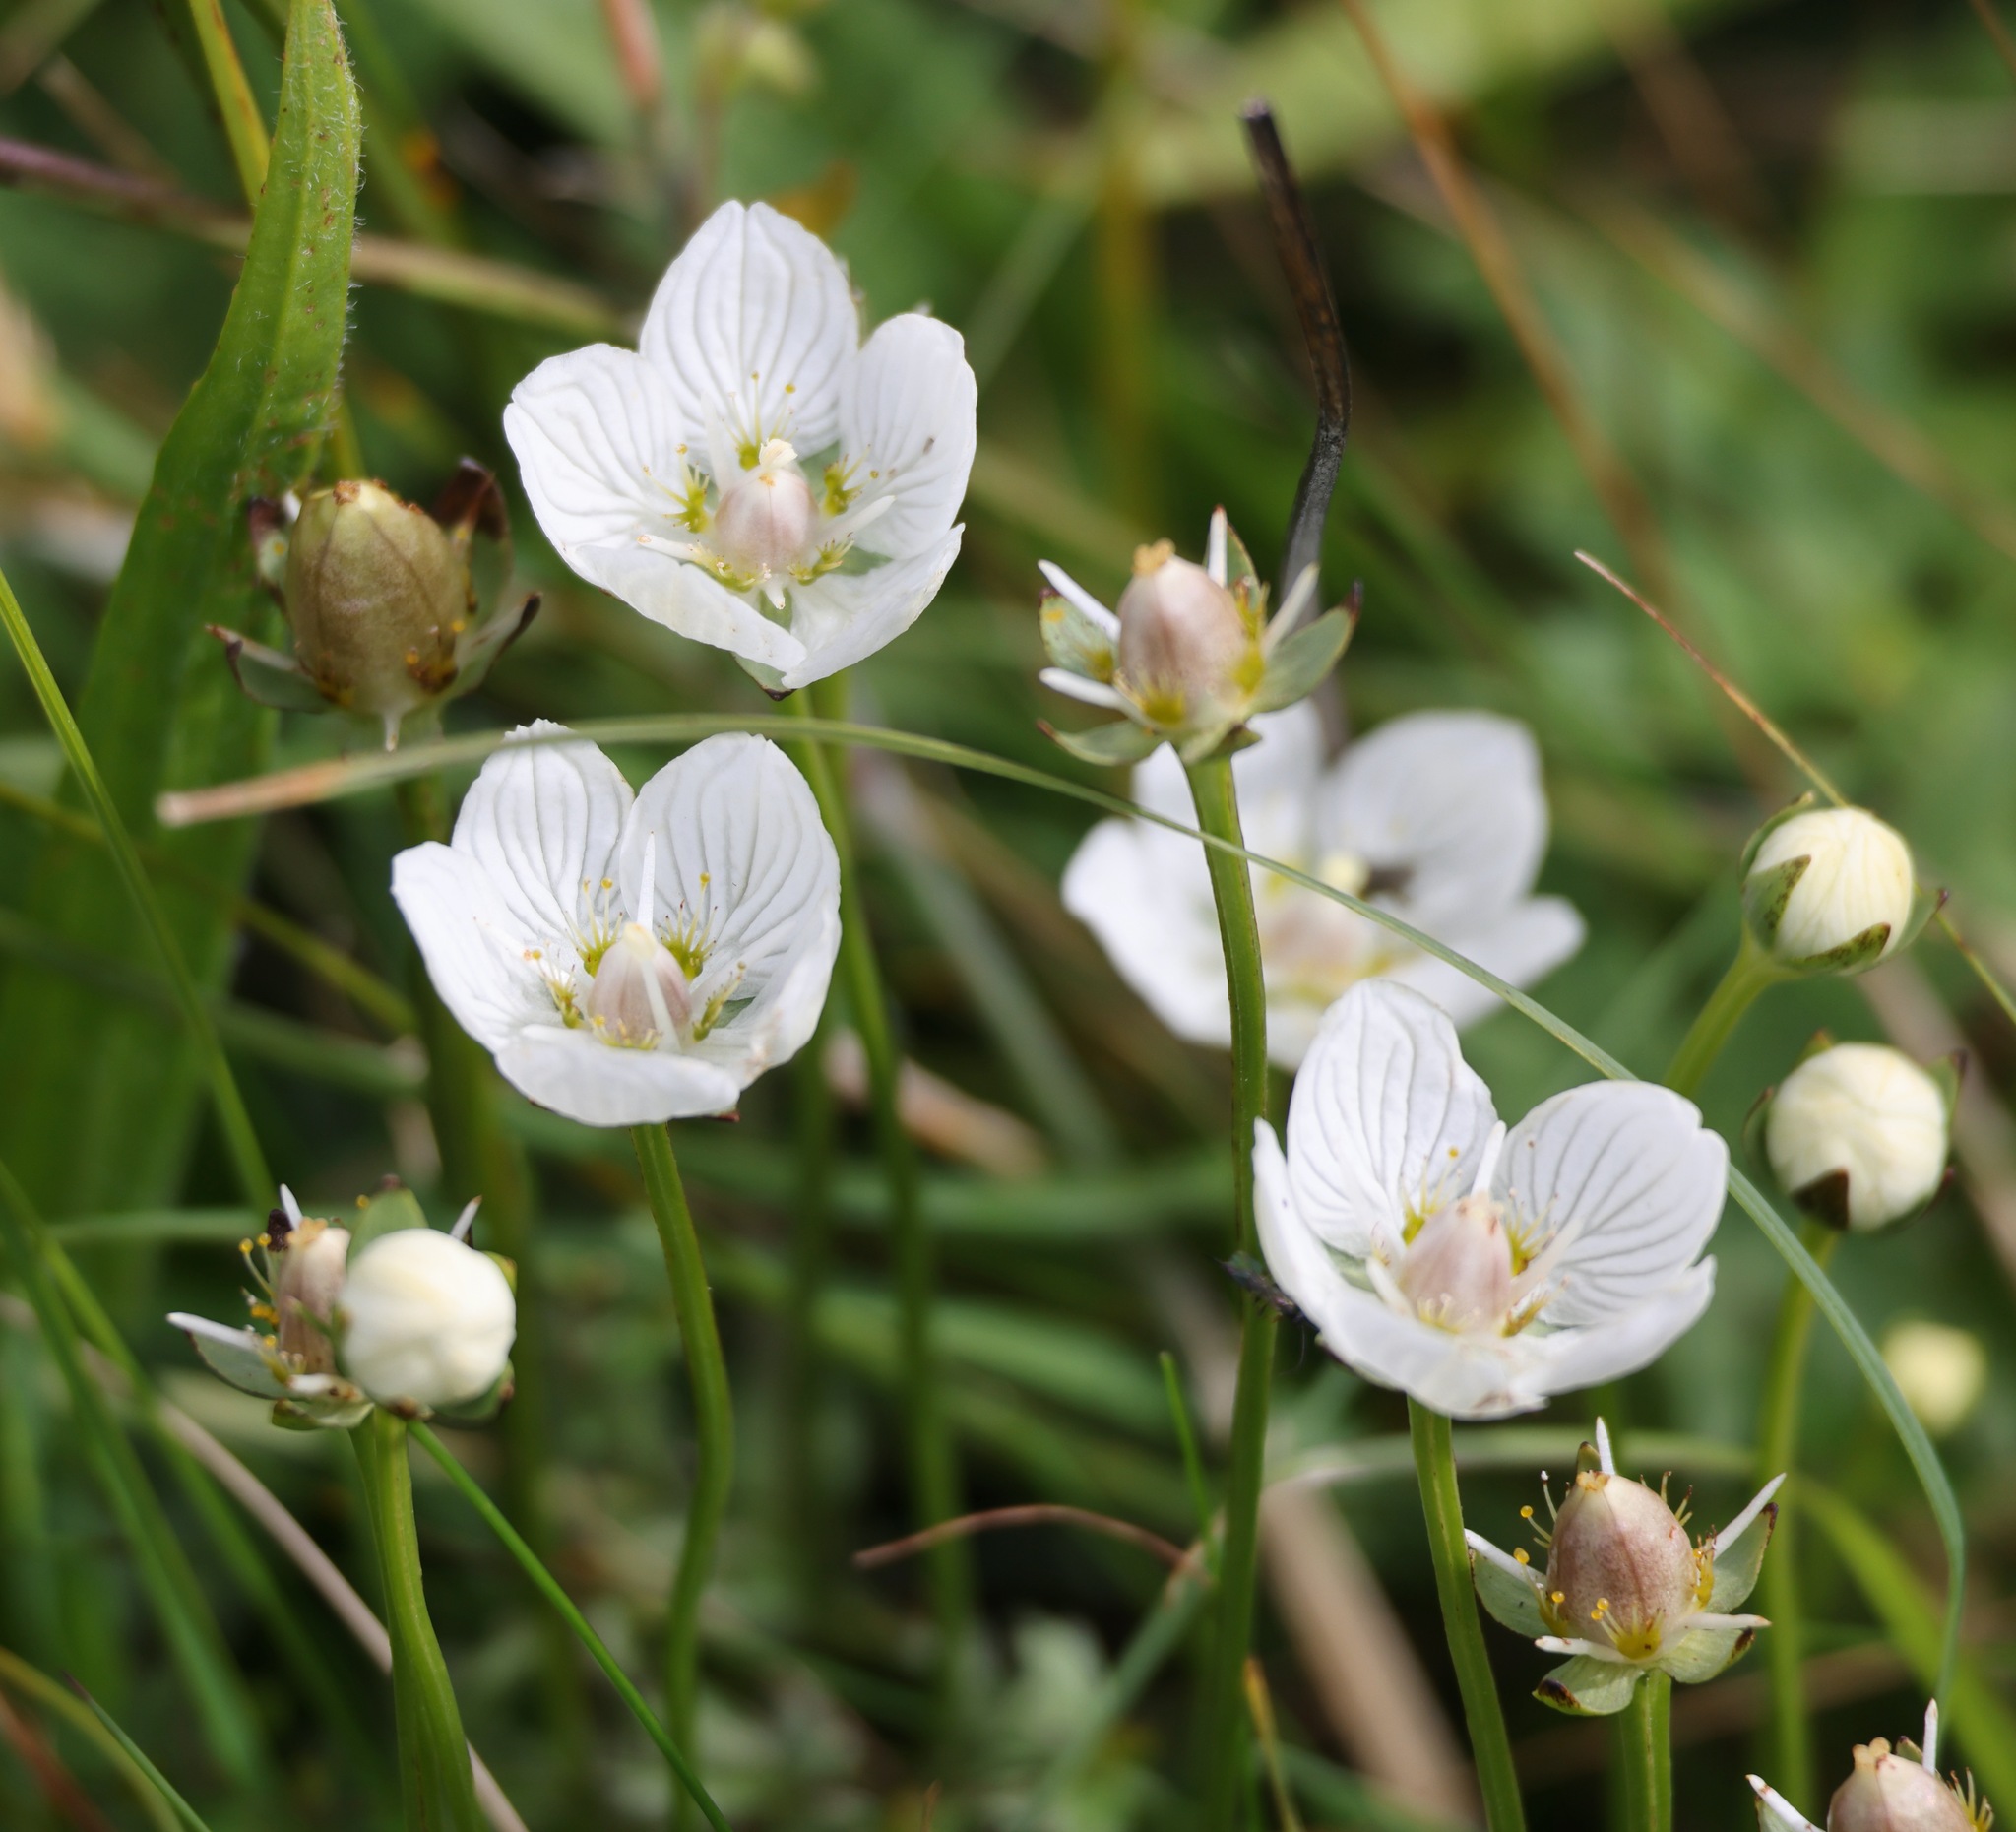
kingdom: Plantae
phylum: Tracheophyta
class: Magnoliopsida
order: Celastrales
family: Parnassiaceae
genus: Parnassia
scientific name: Parnassia palustris
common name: Grass-of-parnassus
